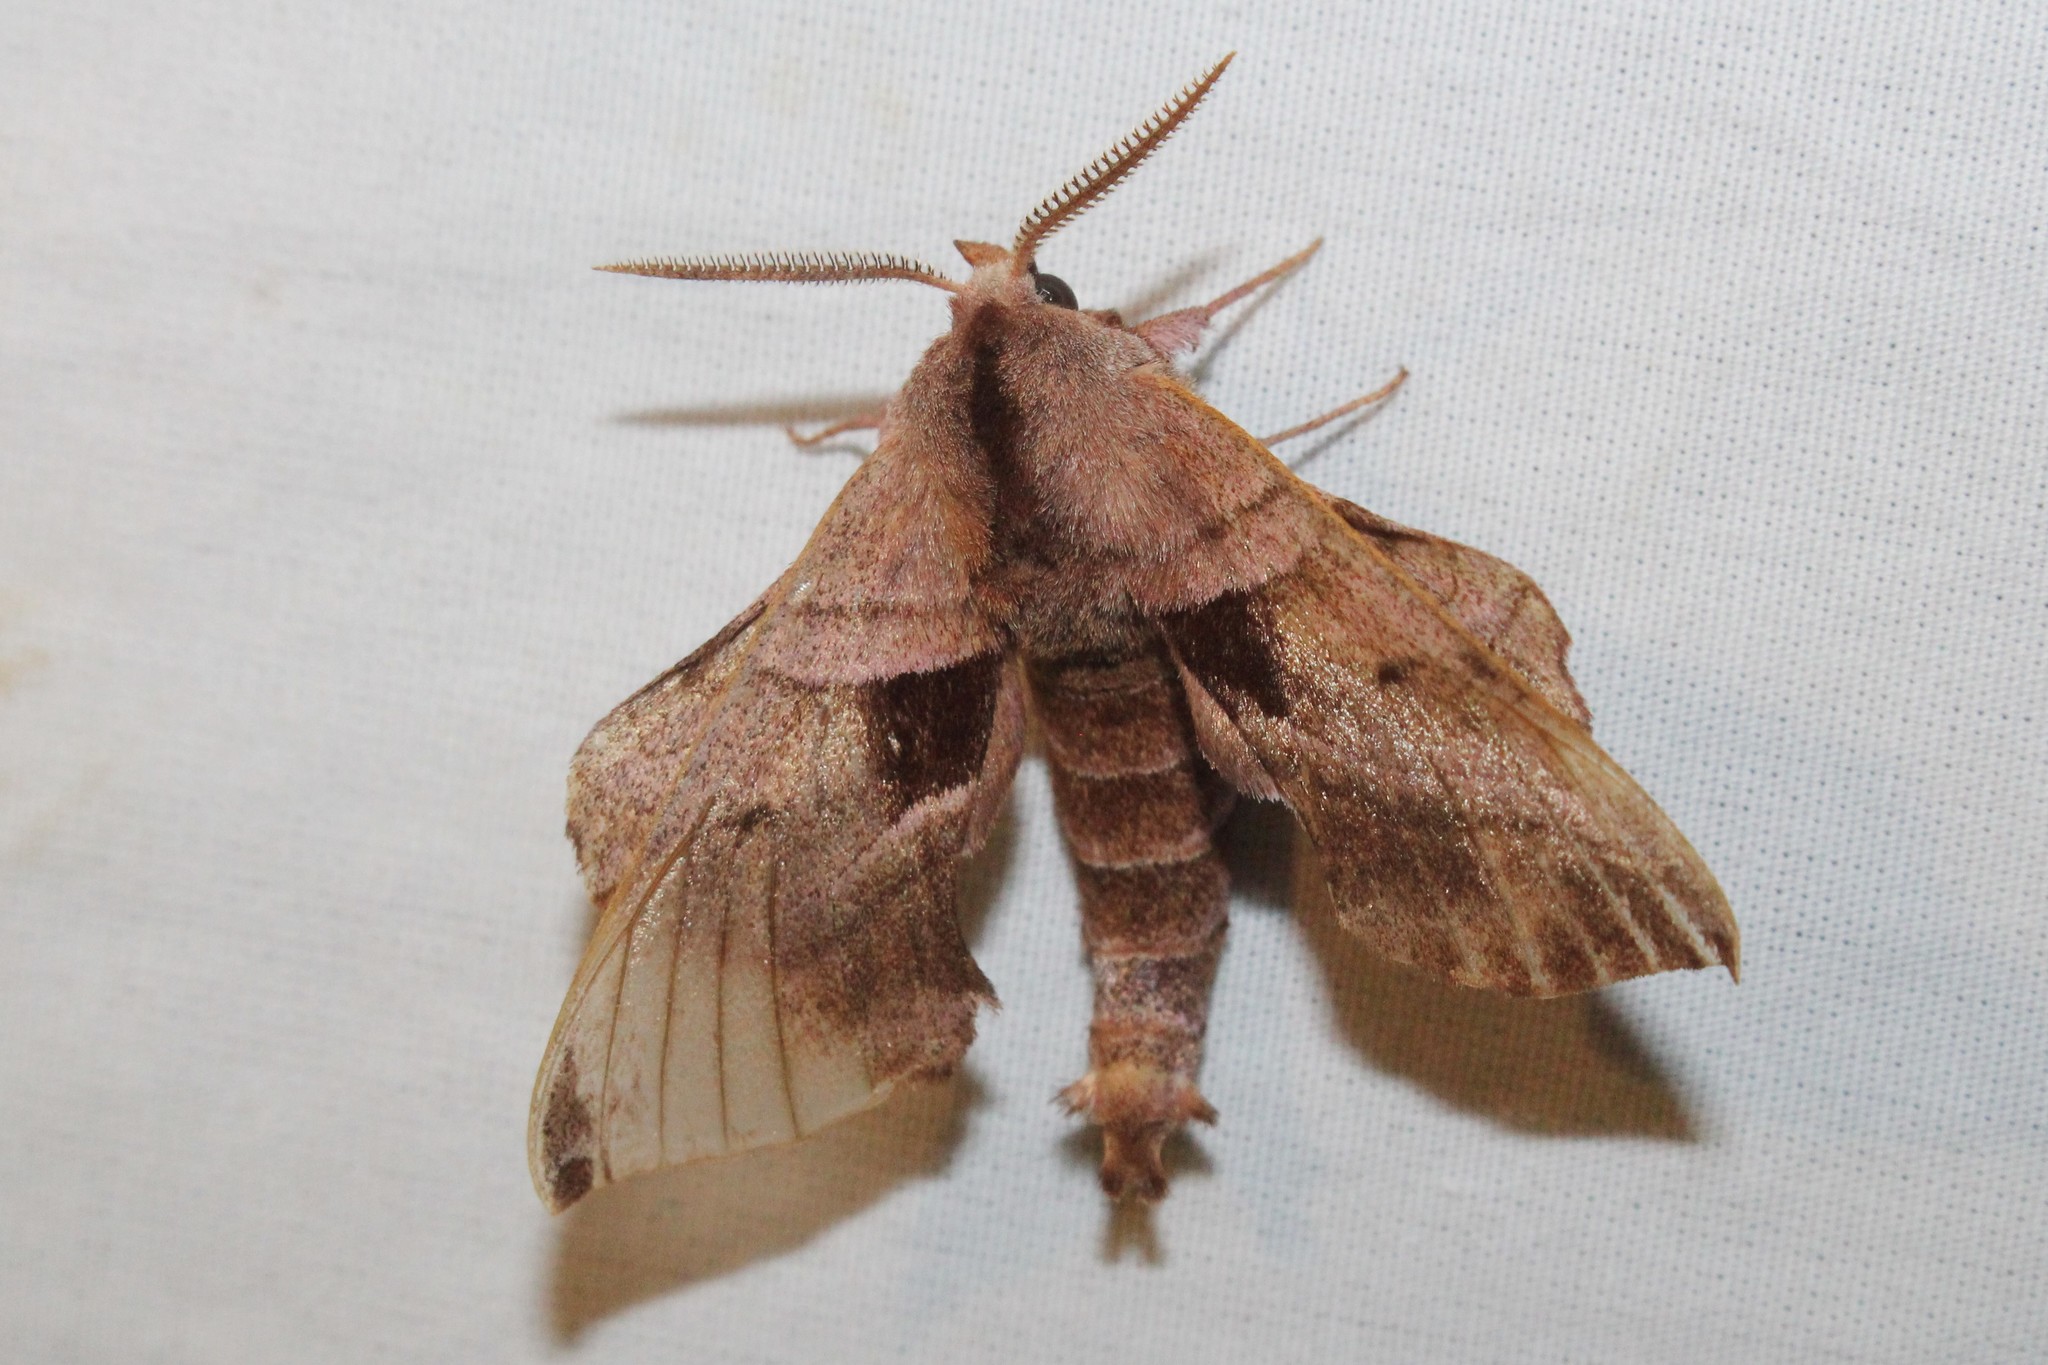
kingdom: Animalia
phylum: Arthropoda
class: Insecta
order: Lepidoptera
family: Sphingidae
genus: Amorpha
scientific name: Amorpha juglandis
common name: Walnut sphinx
